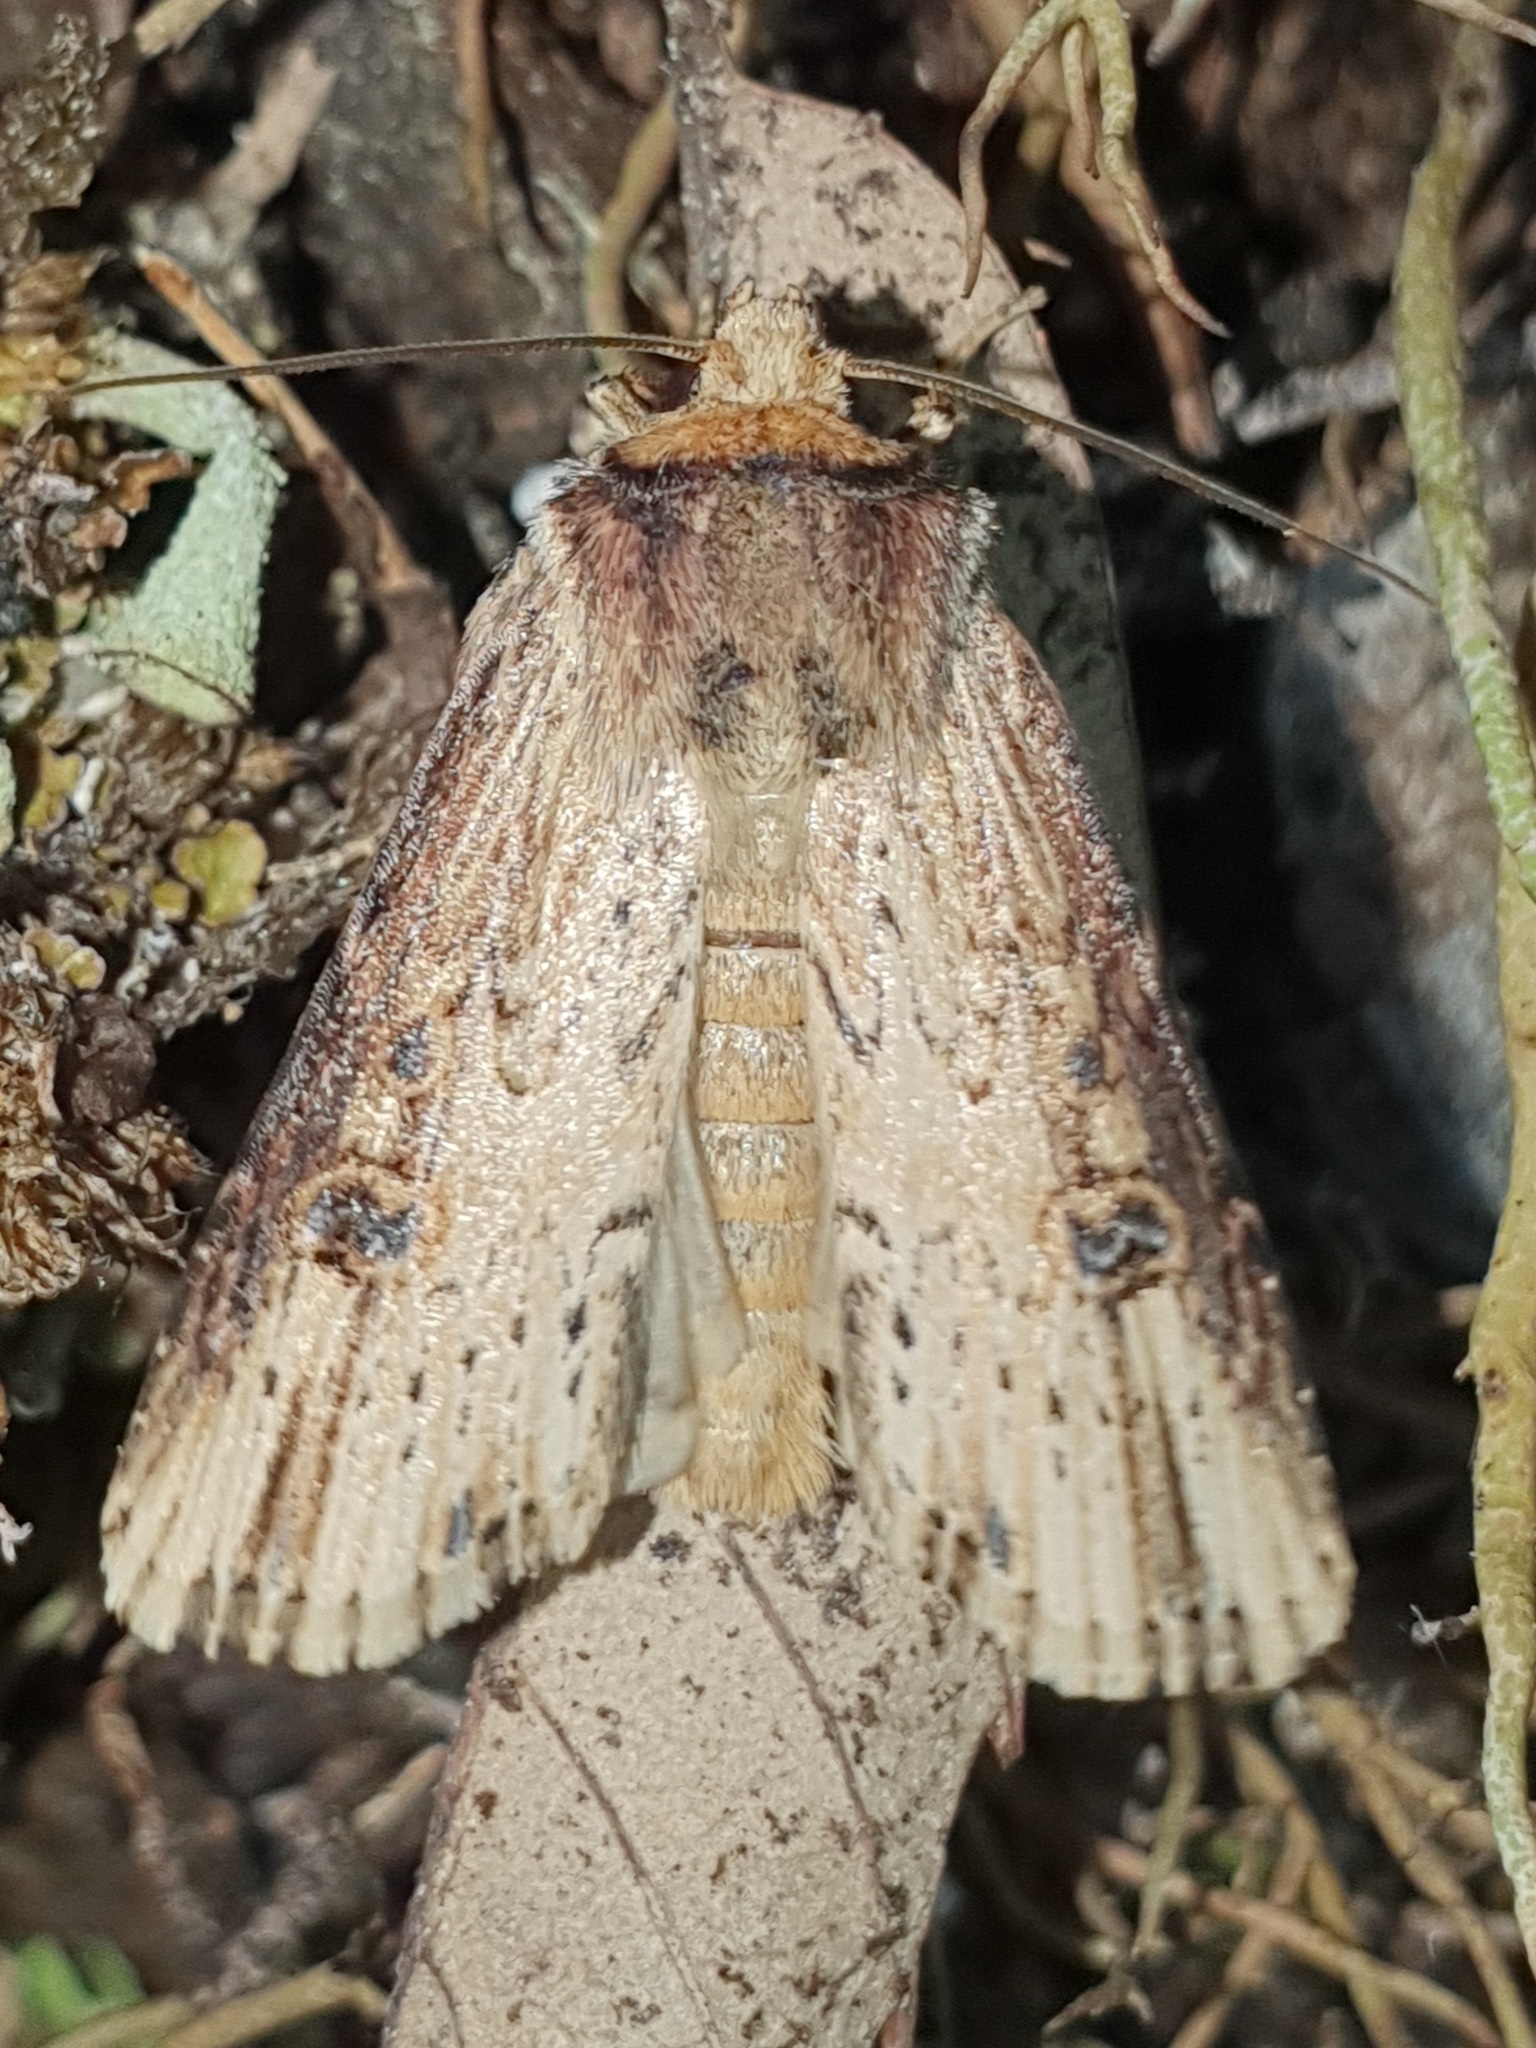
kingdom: Animalia
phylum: Arthropoda
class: Insecta
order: Lepidoptera
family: Noctuidae
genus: Axylia
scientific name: Axylia putris
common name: Flame
